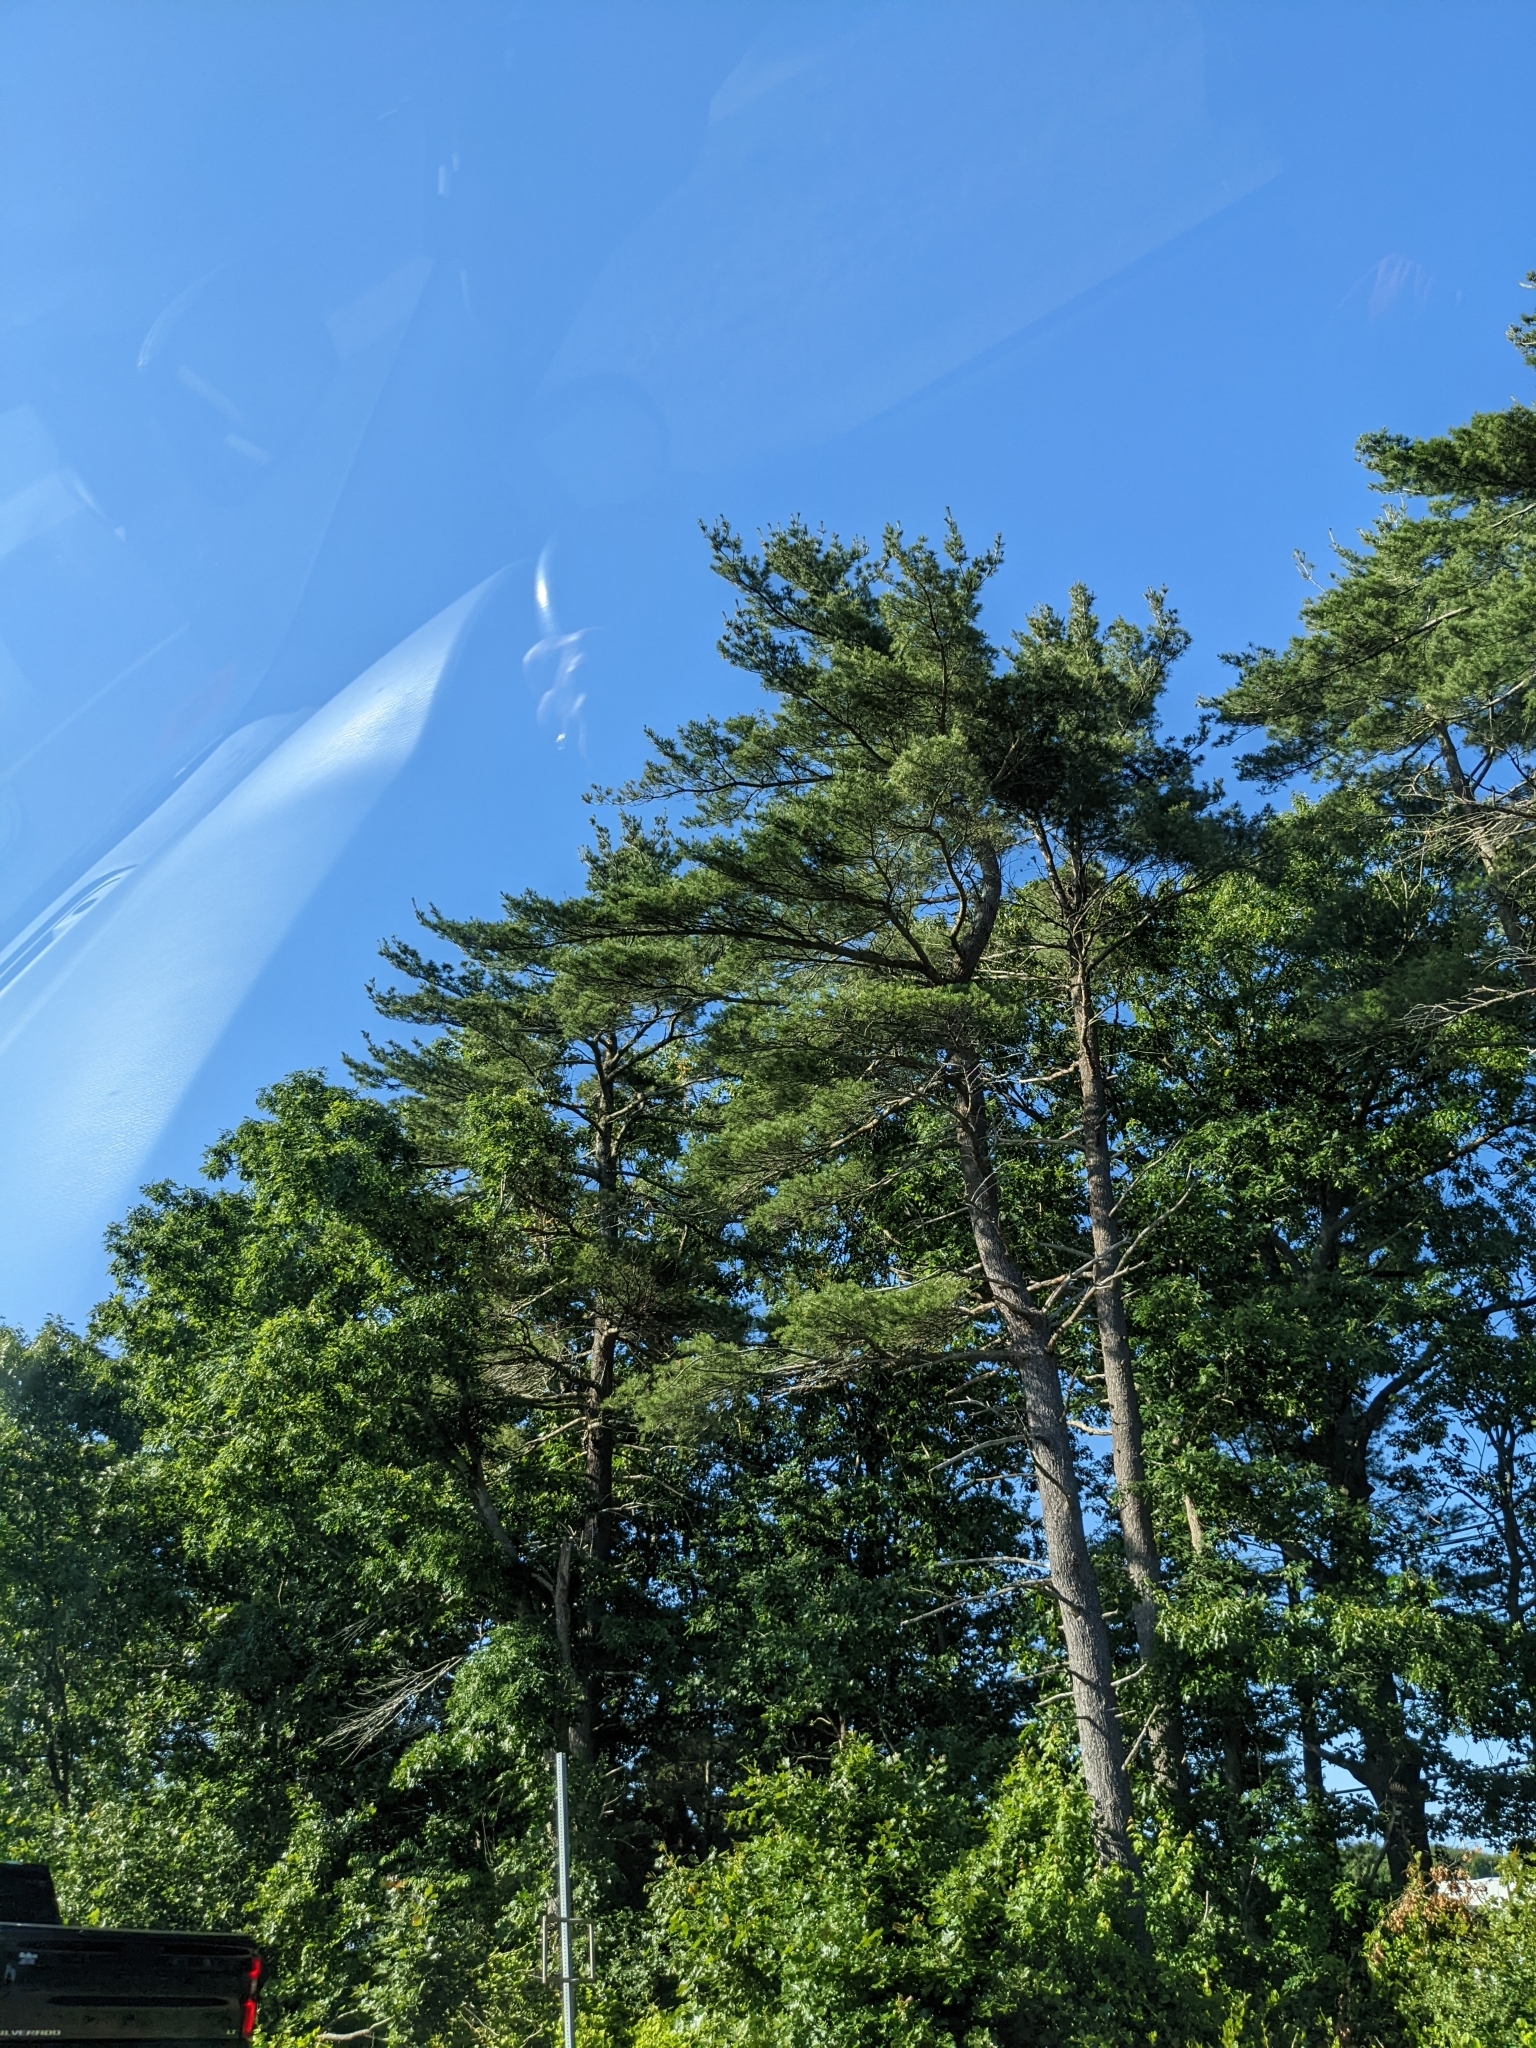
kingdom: Plantae
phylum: Tracheophyta
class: Pinopsida
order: Pinales
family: Pinaceae
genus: Pinus
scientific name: Pinus strobus
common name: Weymouth pine
